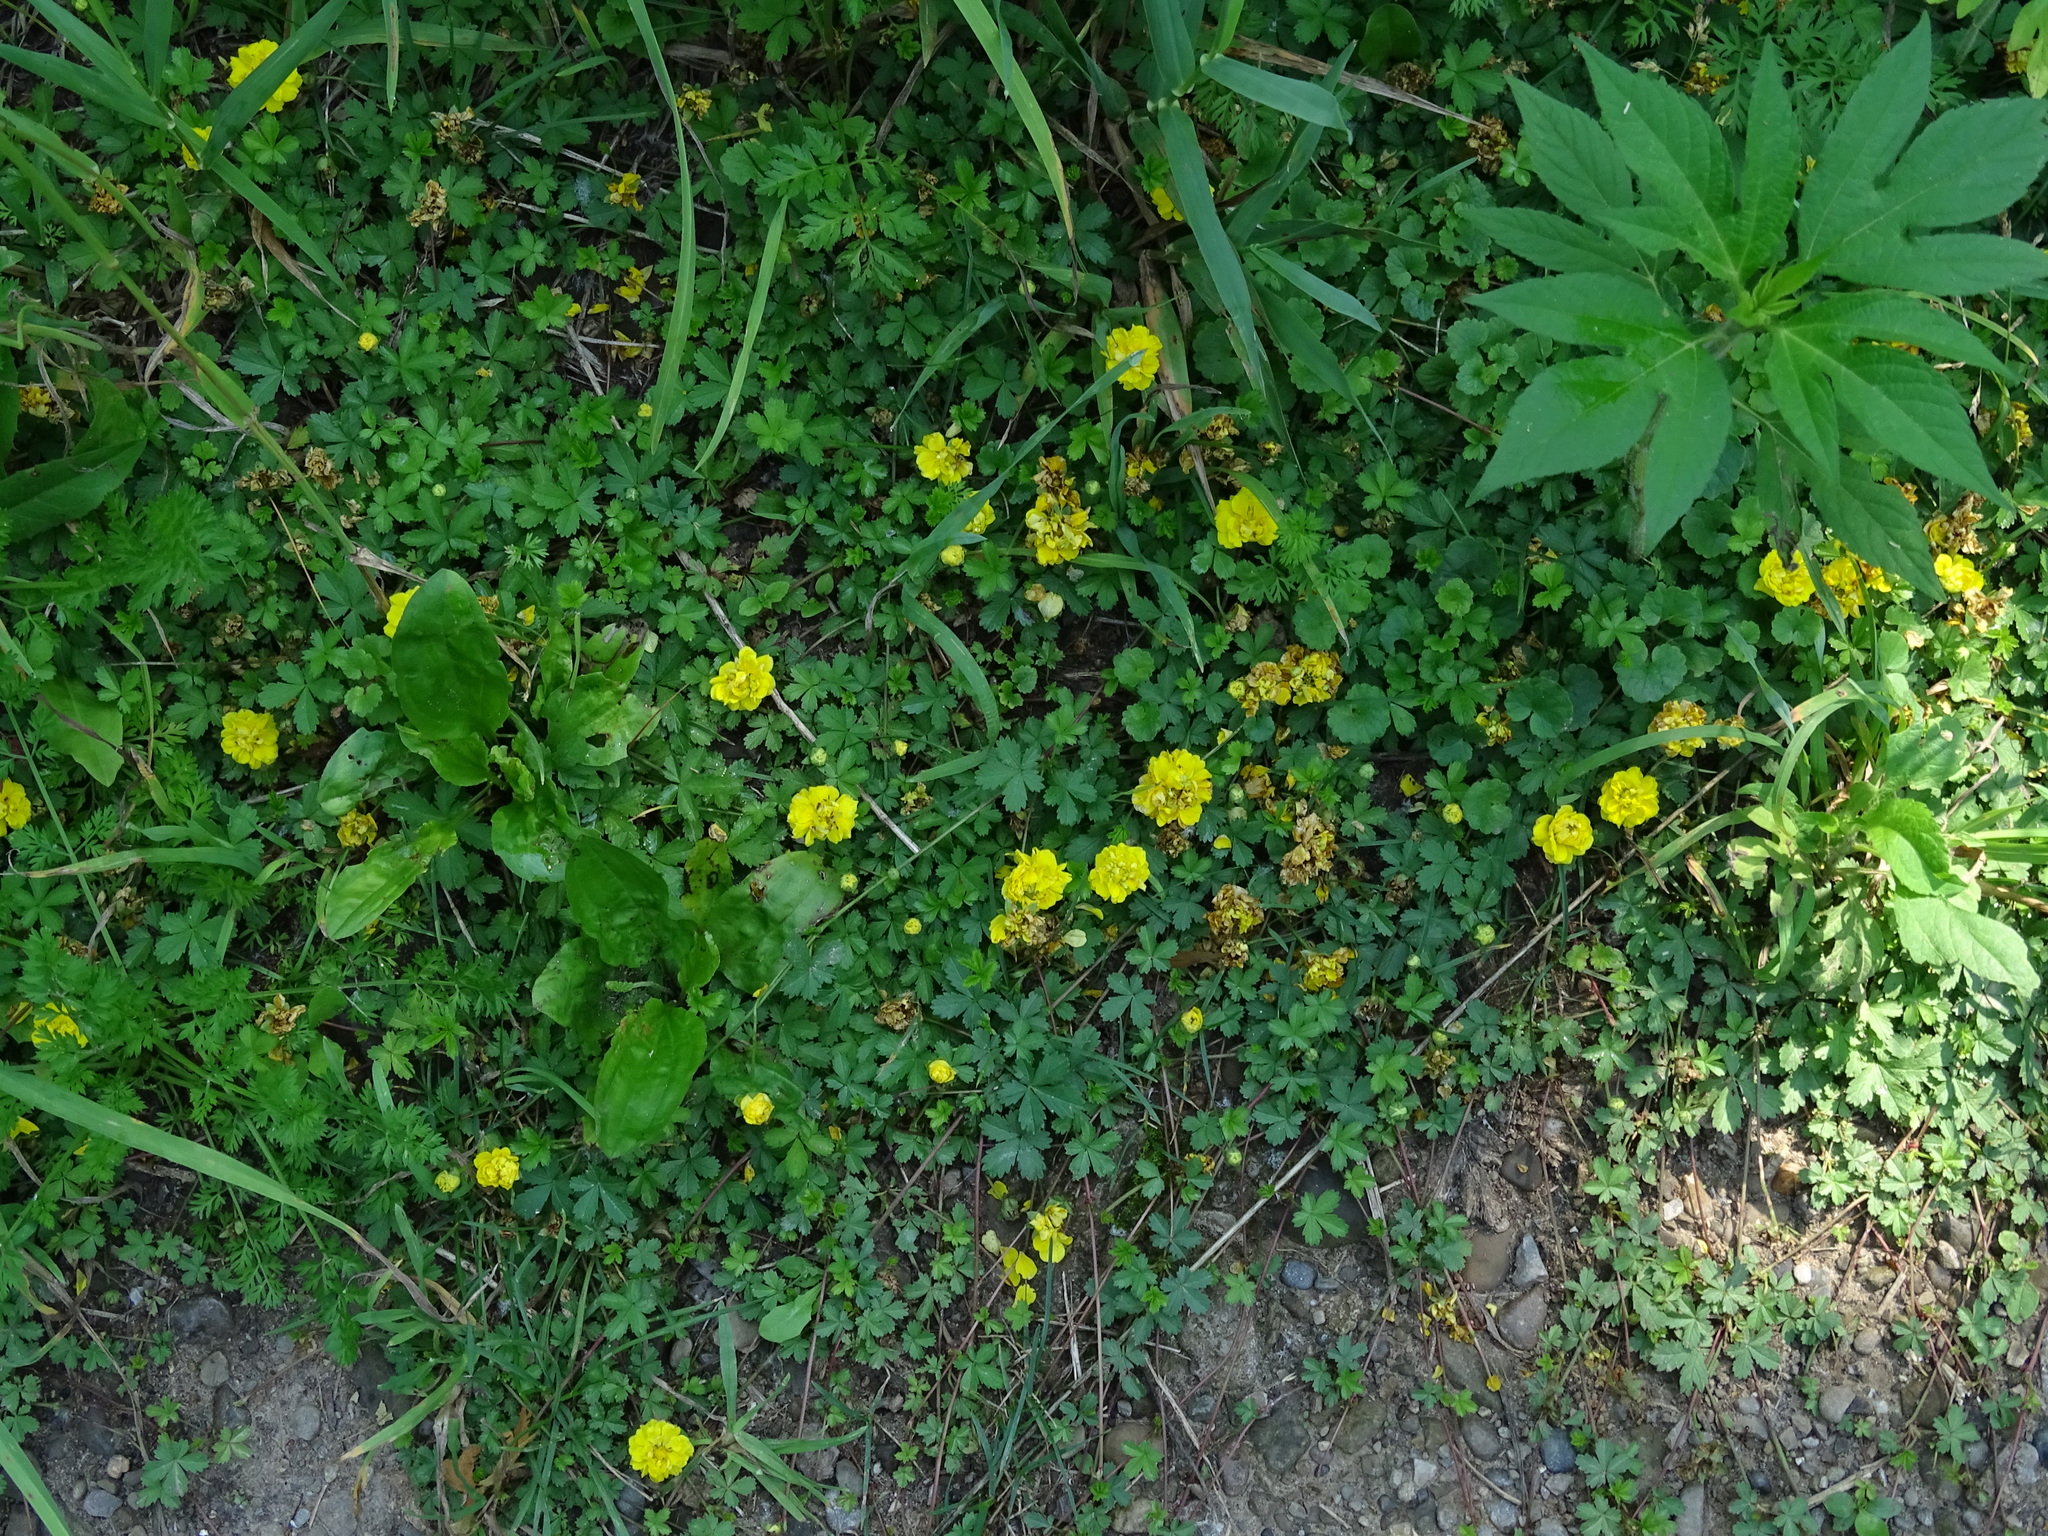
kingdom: Plantae
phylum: Tracheophyta
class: Magnoliopsida
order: Rosales
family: Rosaceae
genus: Potentilla
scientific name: Potentilla reptans
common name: Creeping cinquefoil
